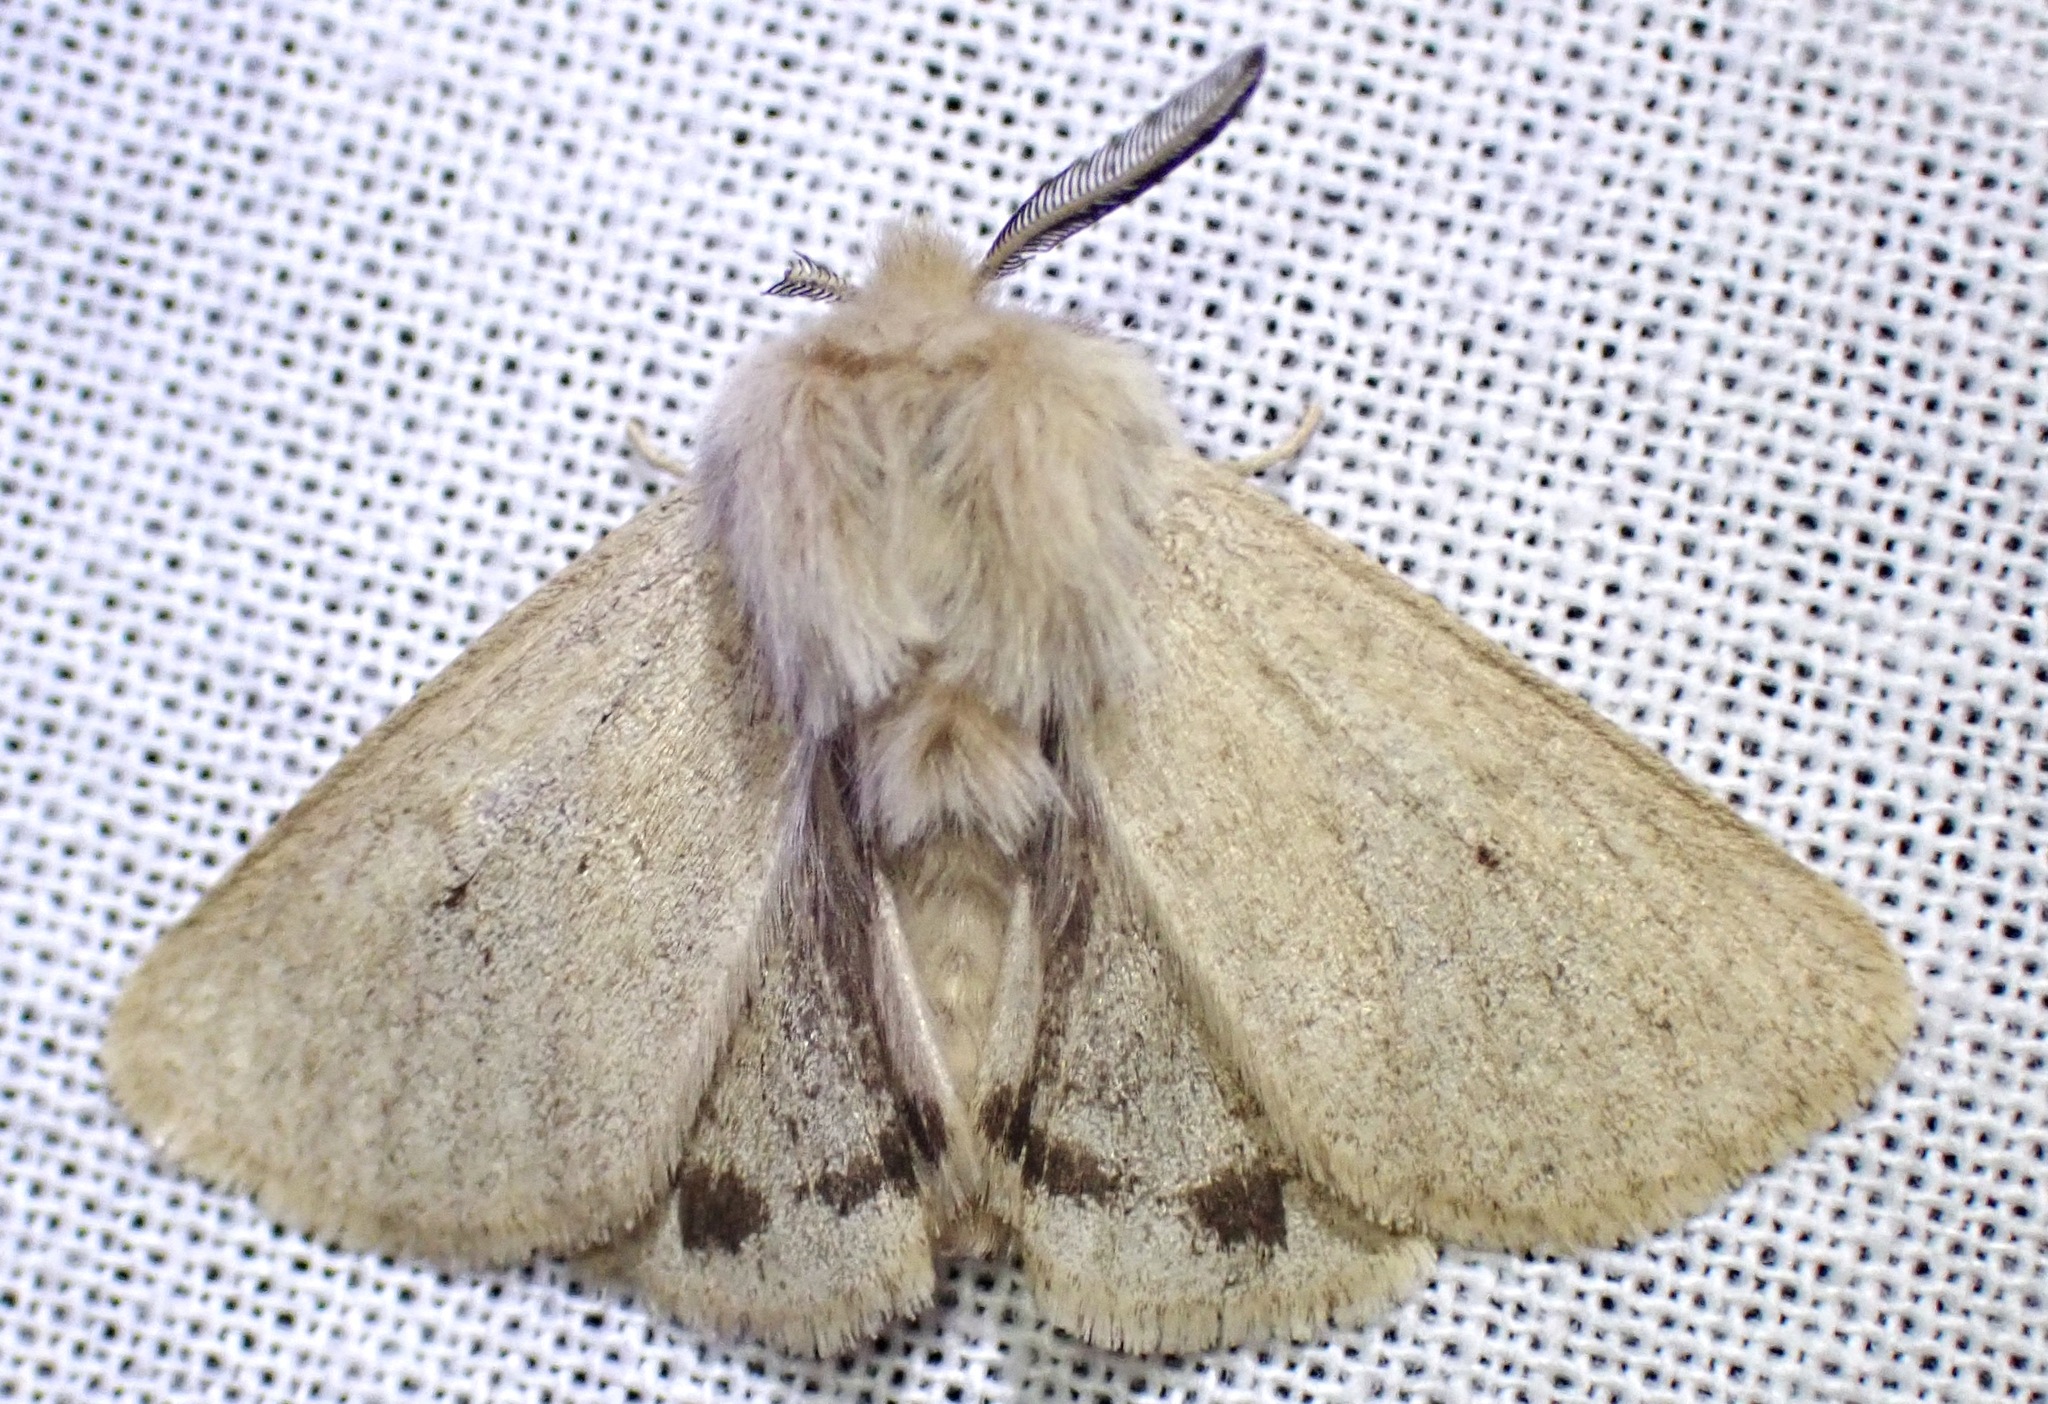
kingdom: Animalia
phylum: Arthropoda
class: Insecta
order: Lepidoptera
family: Erebidae
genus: Spilosoma
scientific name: Spilosoma vagans
